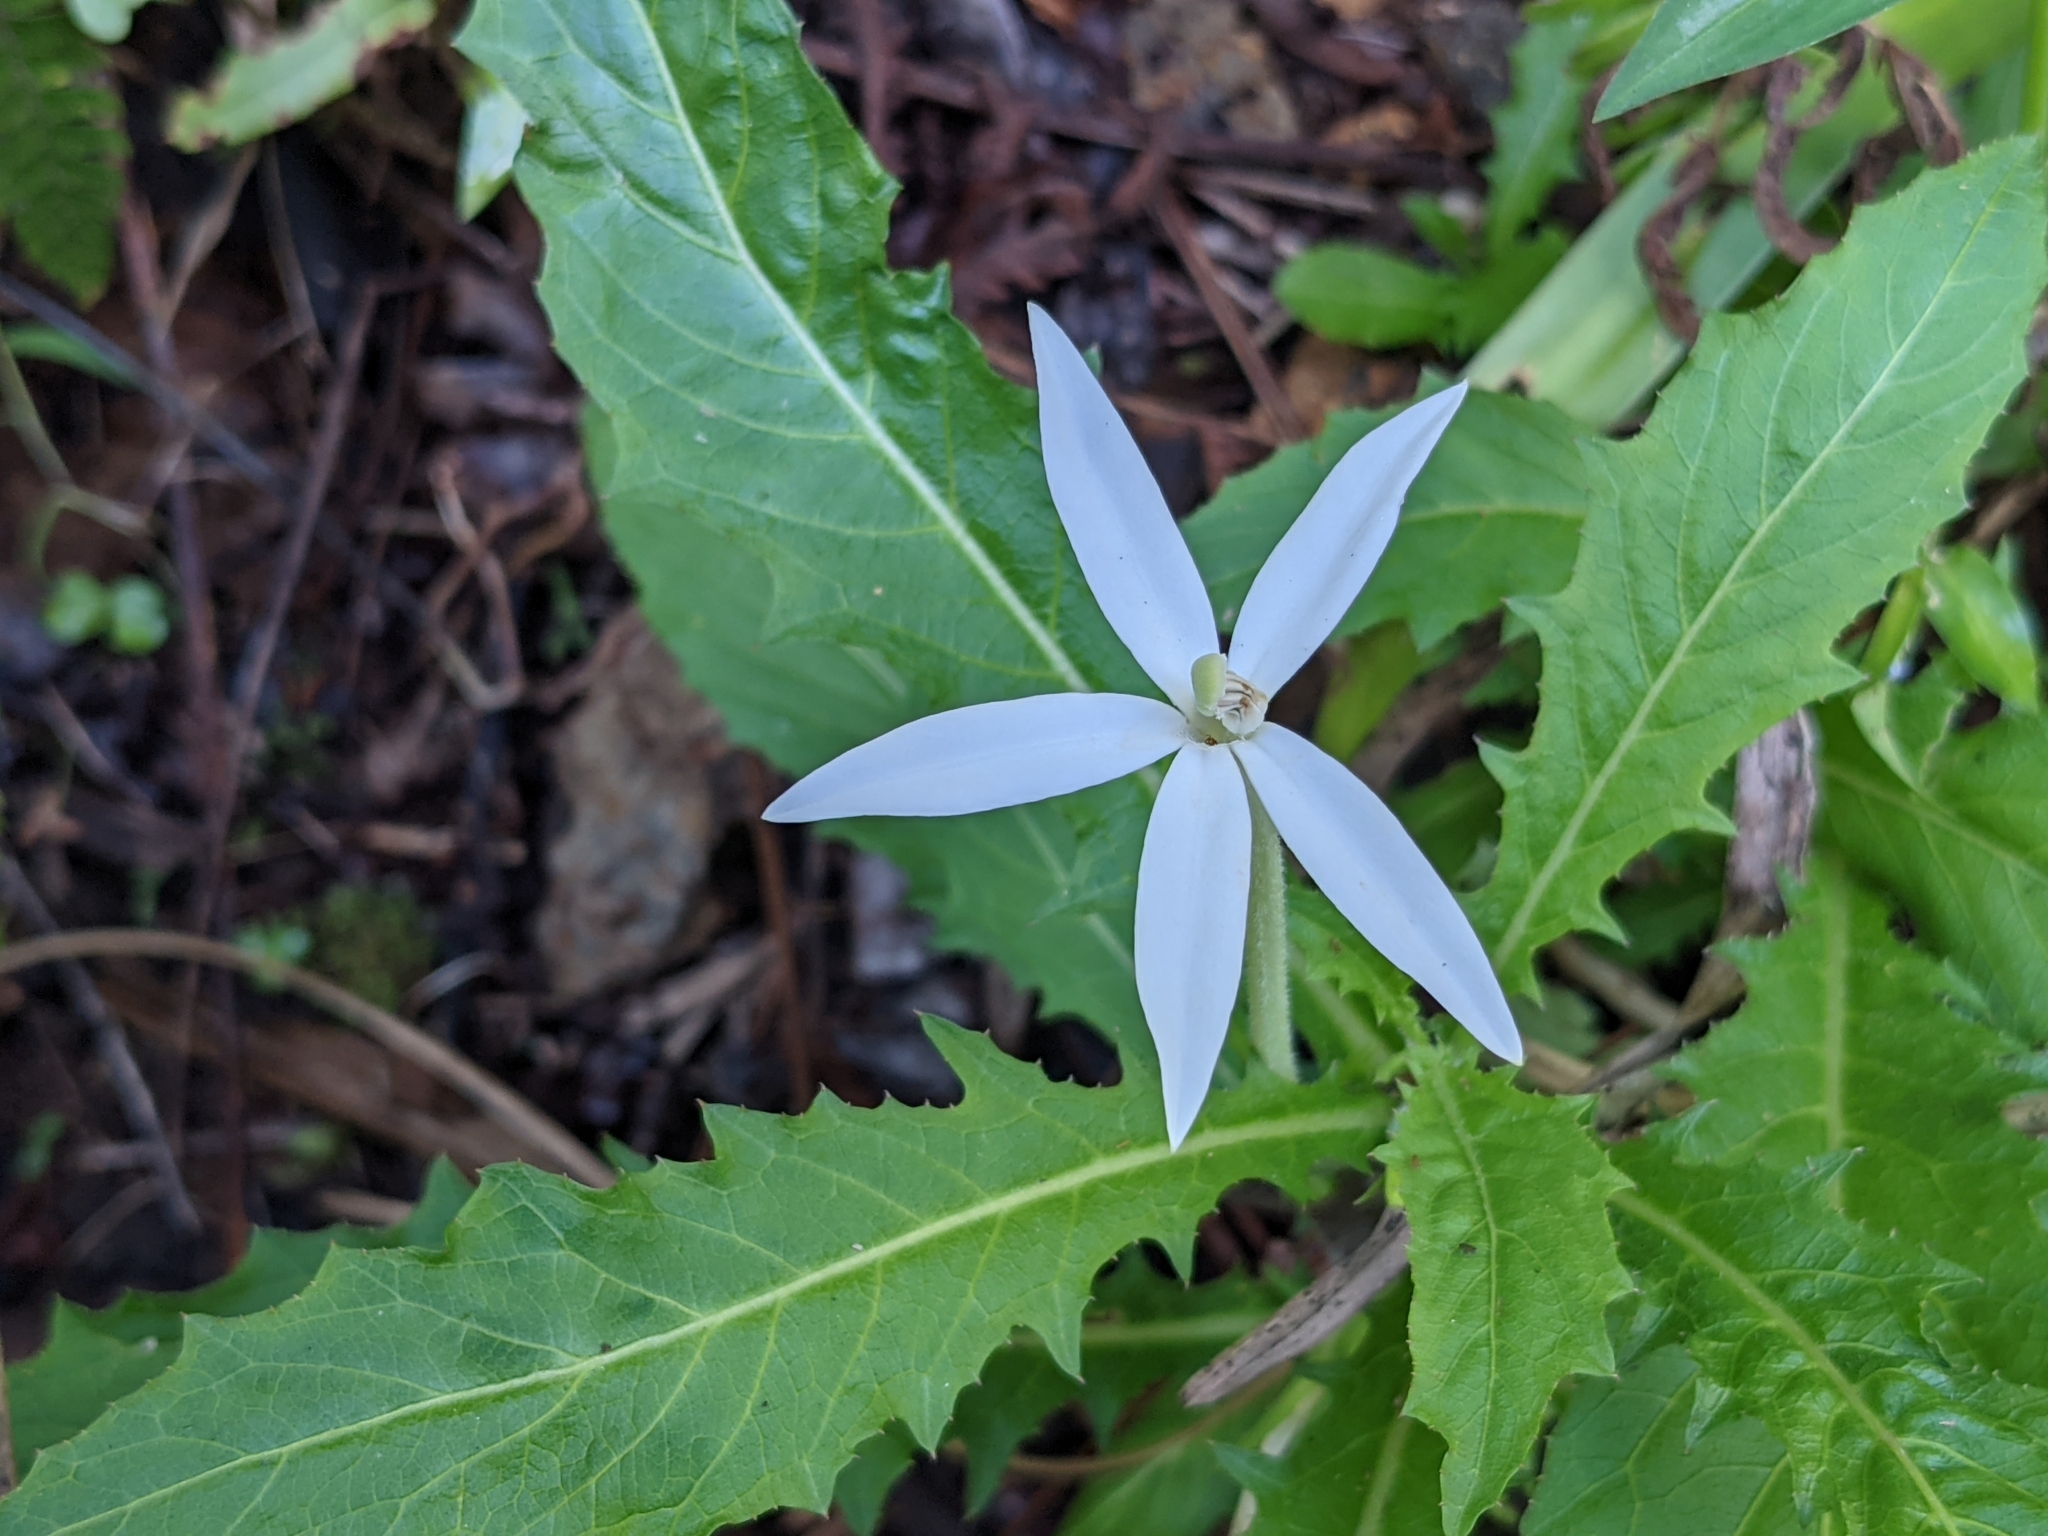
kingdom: Plantae
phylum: Tracheophyta
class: Magnoliopsida
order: Asterales
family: Campanulaceae
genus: Hippobroma
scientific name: Hippobroma longiflora
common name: Madamfate
